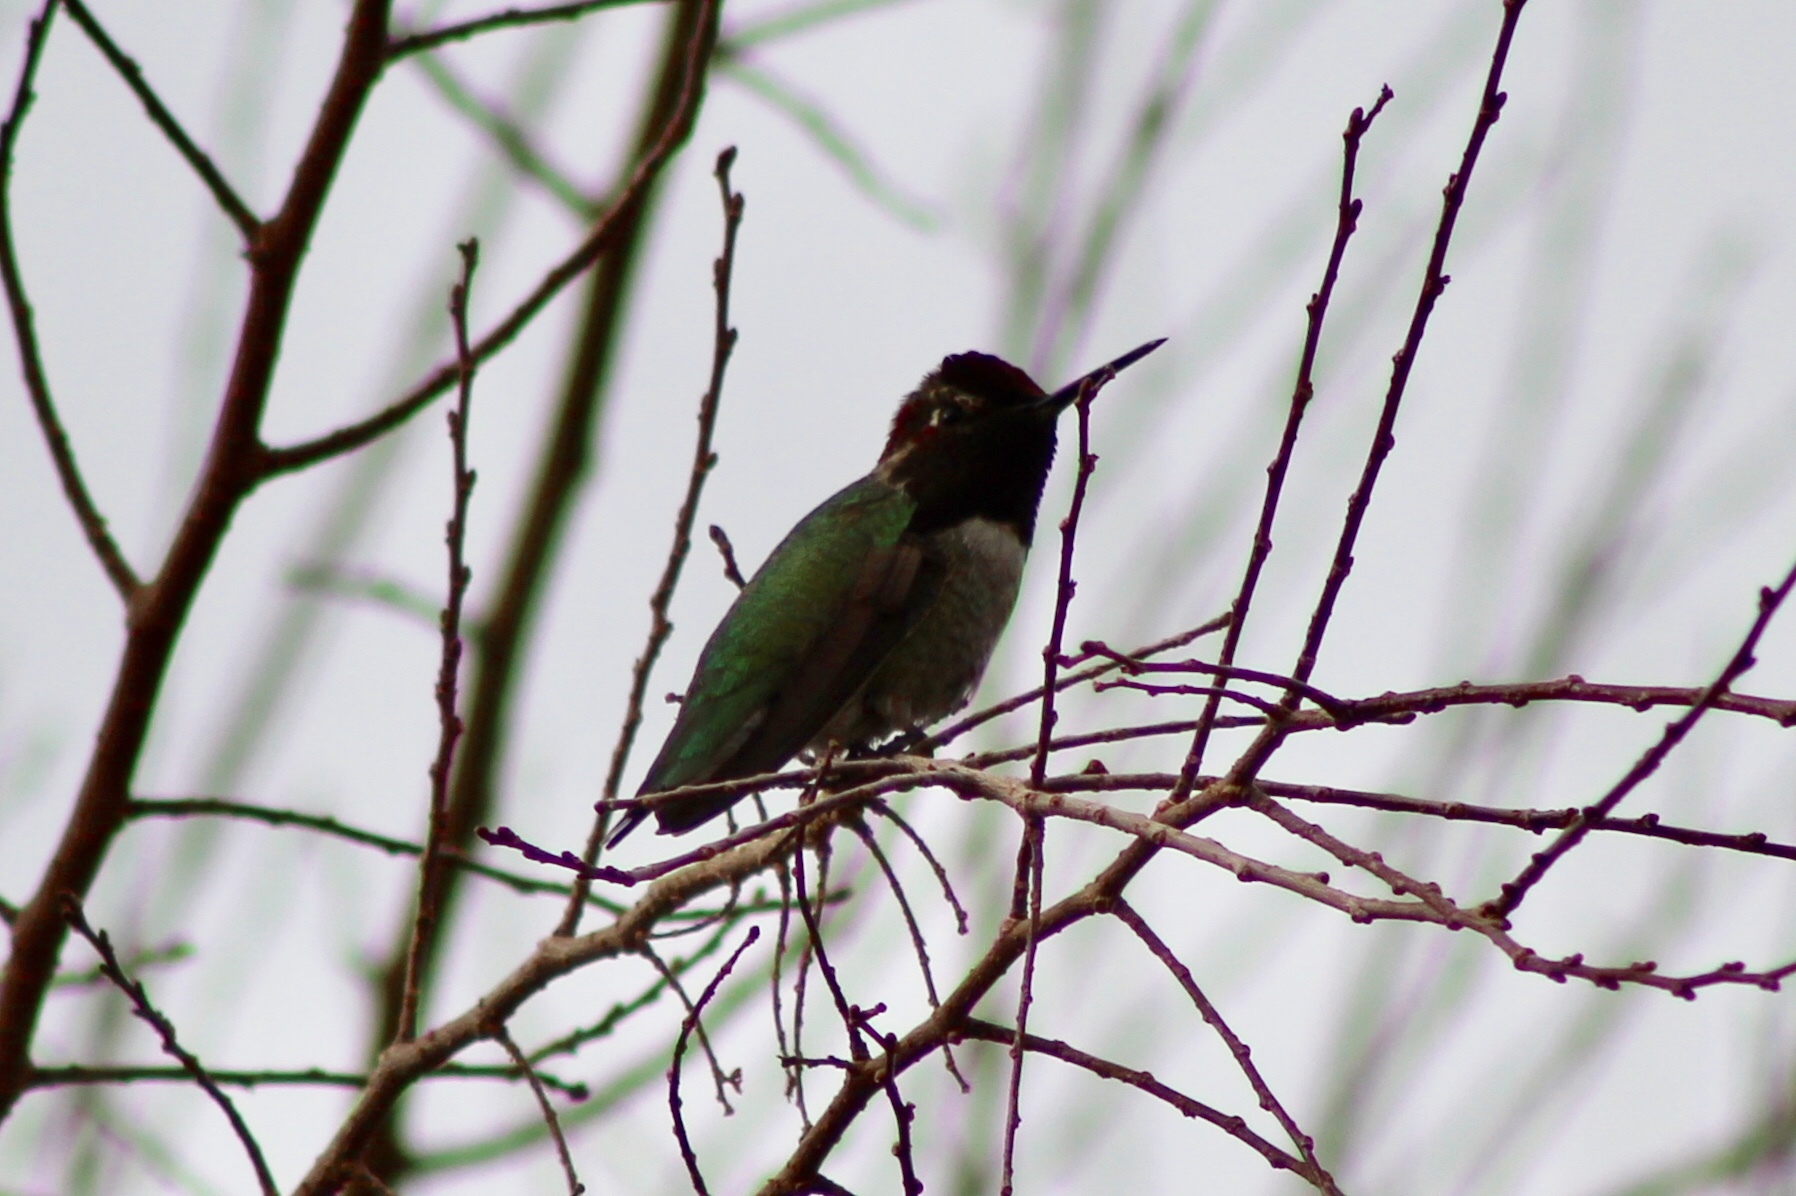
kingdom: Animalia
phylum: Chordata
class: Aves
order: Apodiformes
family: Trochilidae
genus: Calypte
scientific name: Calypte anna
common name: Anna's hummingbird
